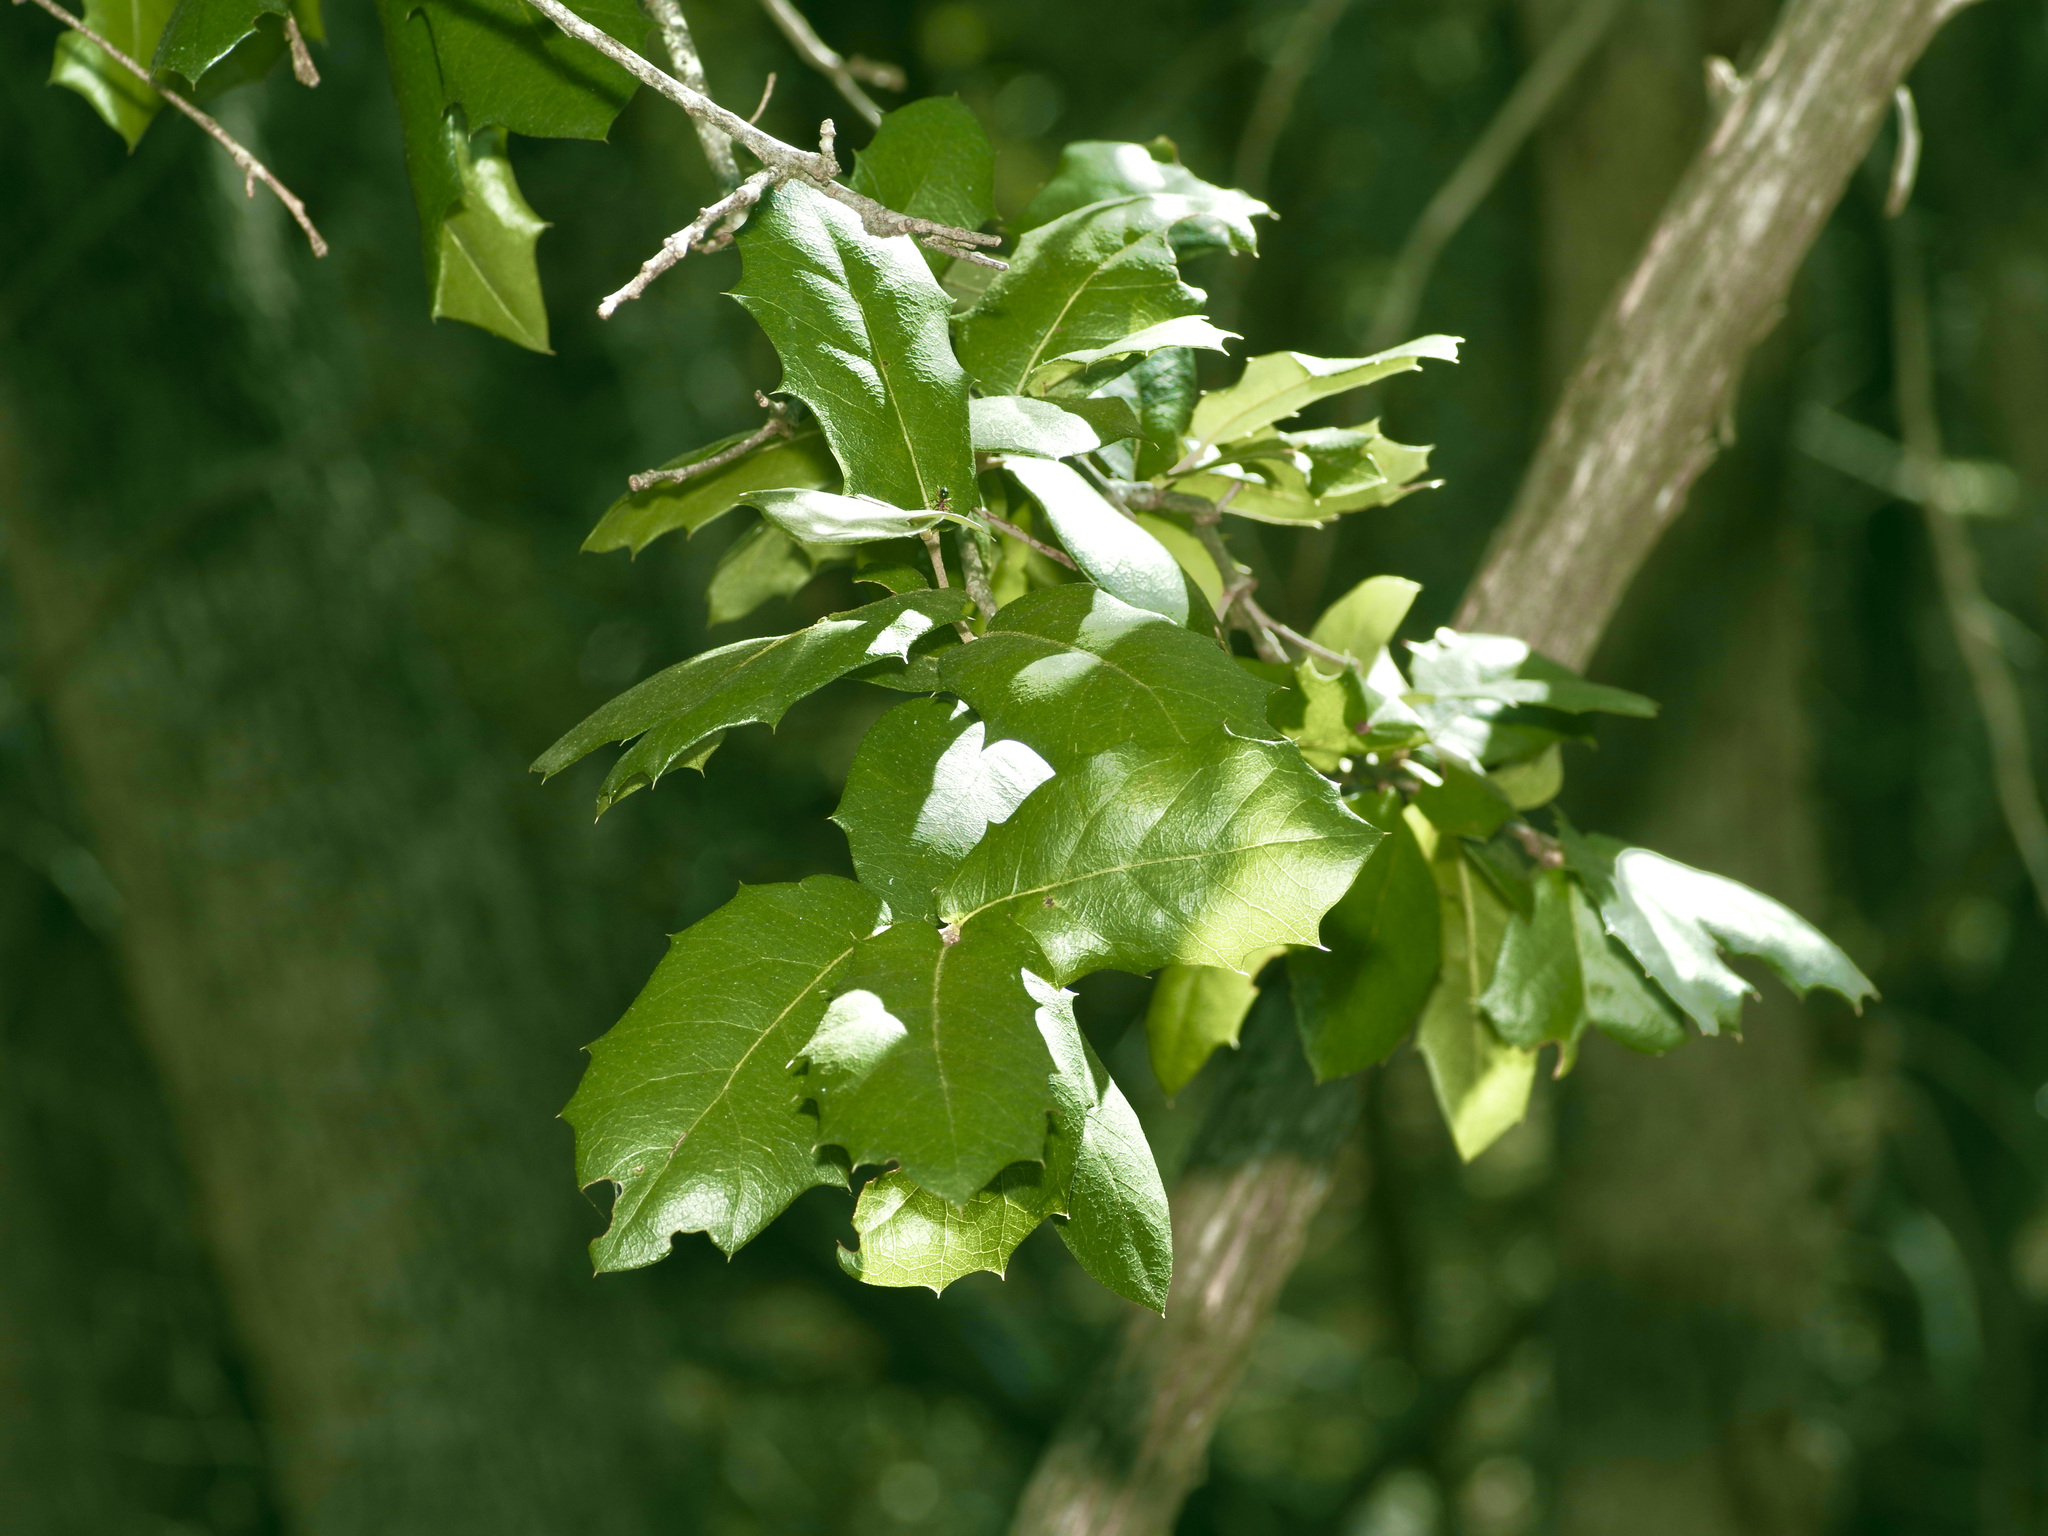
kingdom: Plantae
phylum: Tracheophyta
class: Magnoliopsida
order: Fagales
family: Fagaceae
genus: Quercus
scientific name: Quercus fusiformis
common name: Texas live oak
